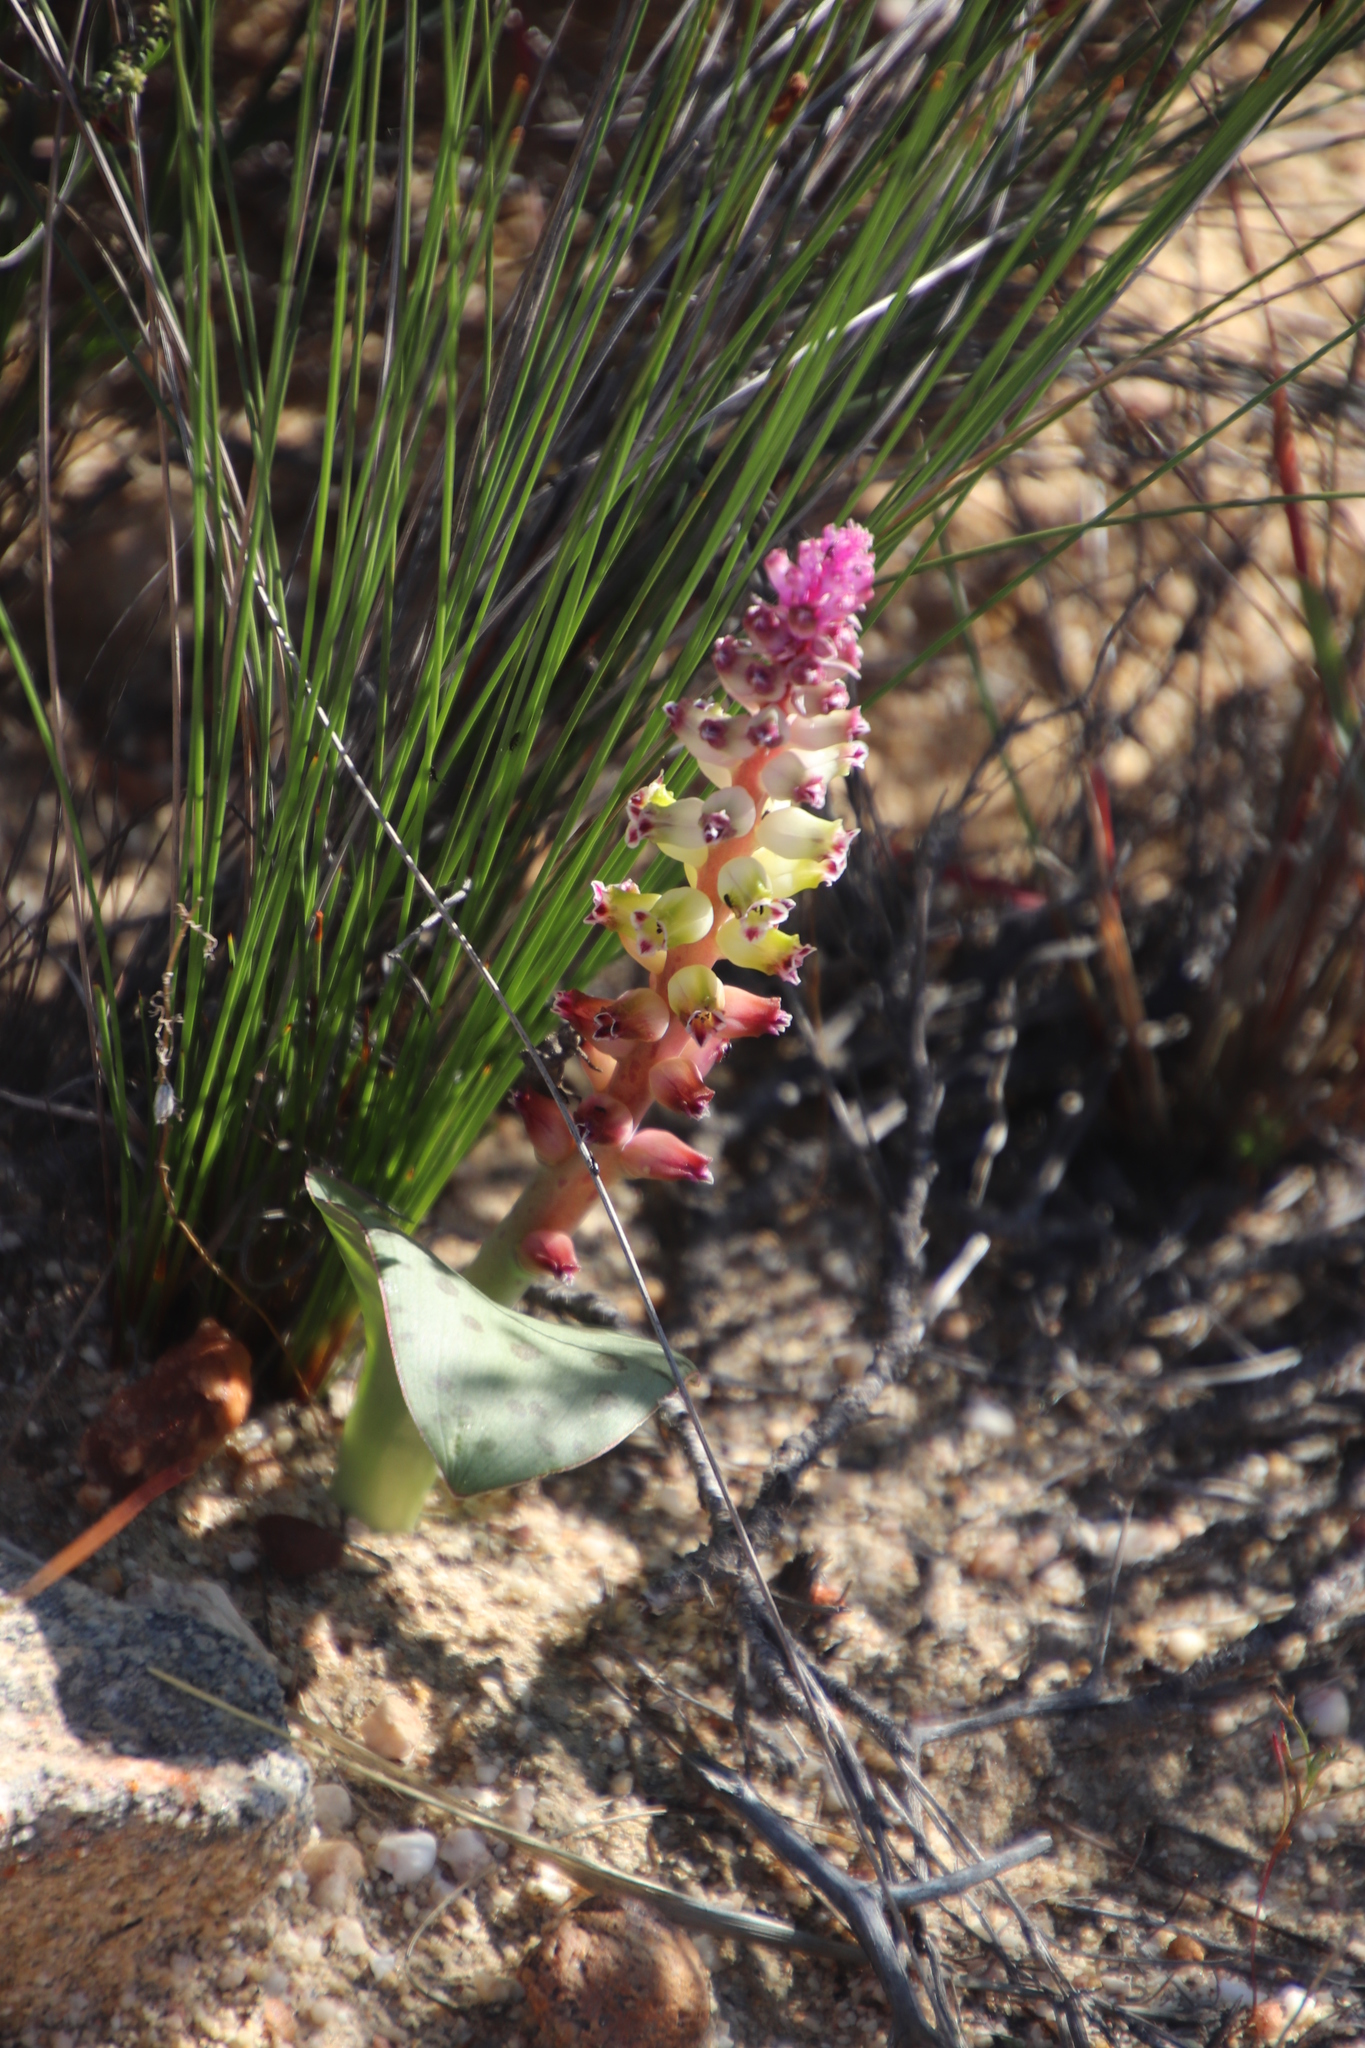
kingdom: Plantae
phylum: Tracheophyta
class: Liliopsida
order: Asparagales
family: Asparagaceae
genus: Lachenalia
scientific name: Lachenalia membranacea
